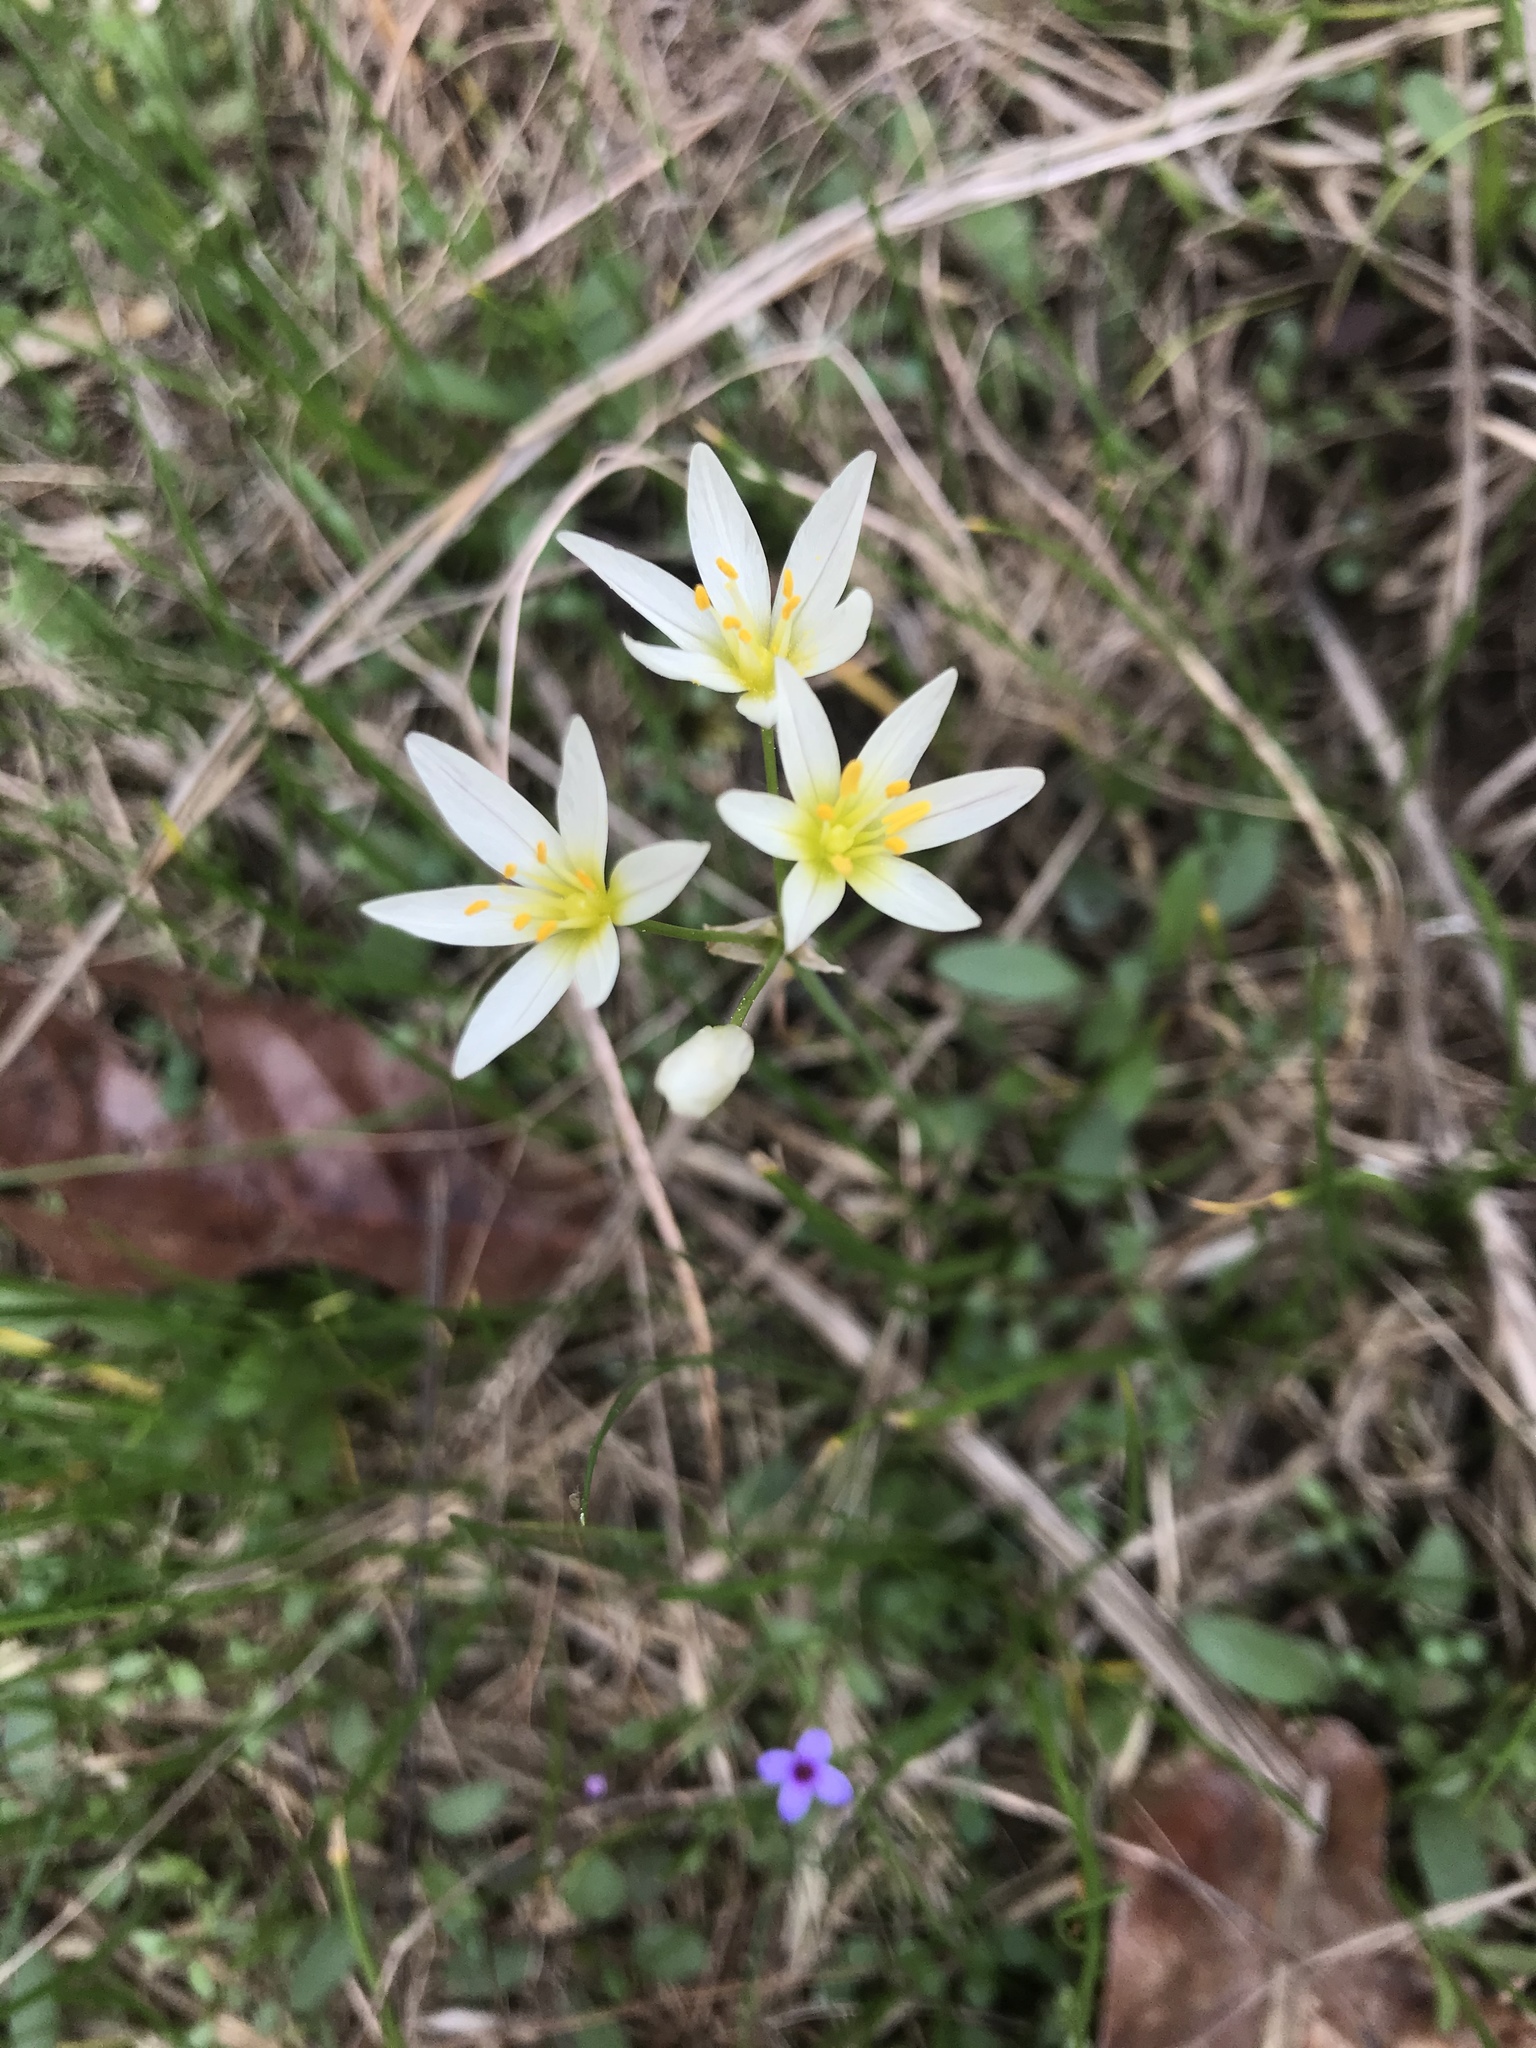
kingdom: Plantae
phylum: Tracheophyta
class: Liliopsida
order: Asparagales
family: Amaryllidaceae
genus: Nothoscordum
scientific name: Nothoscordum bivalve
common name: Crow-poison
